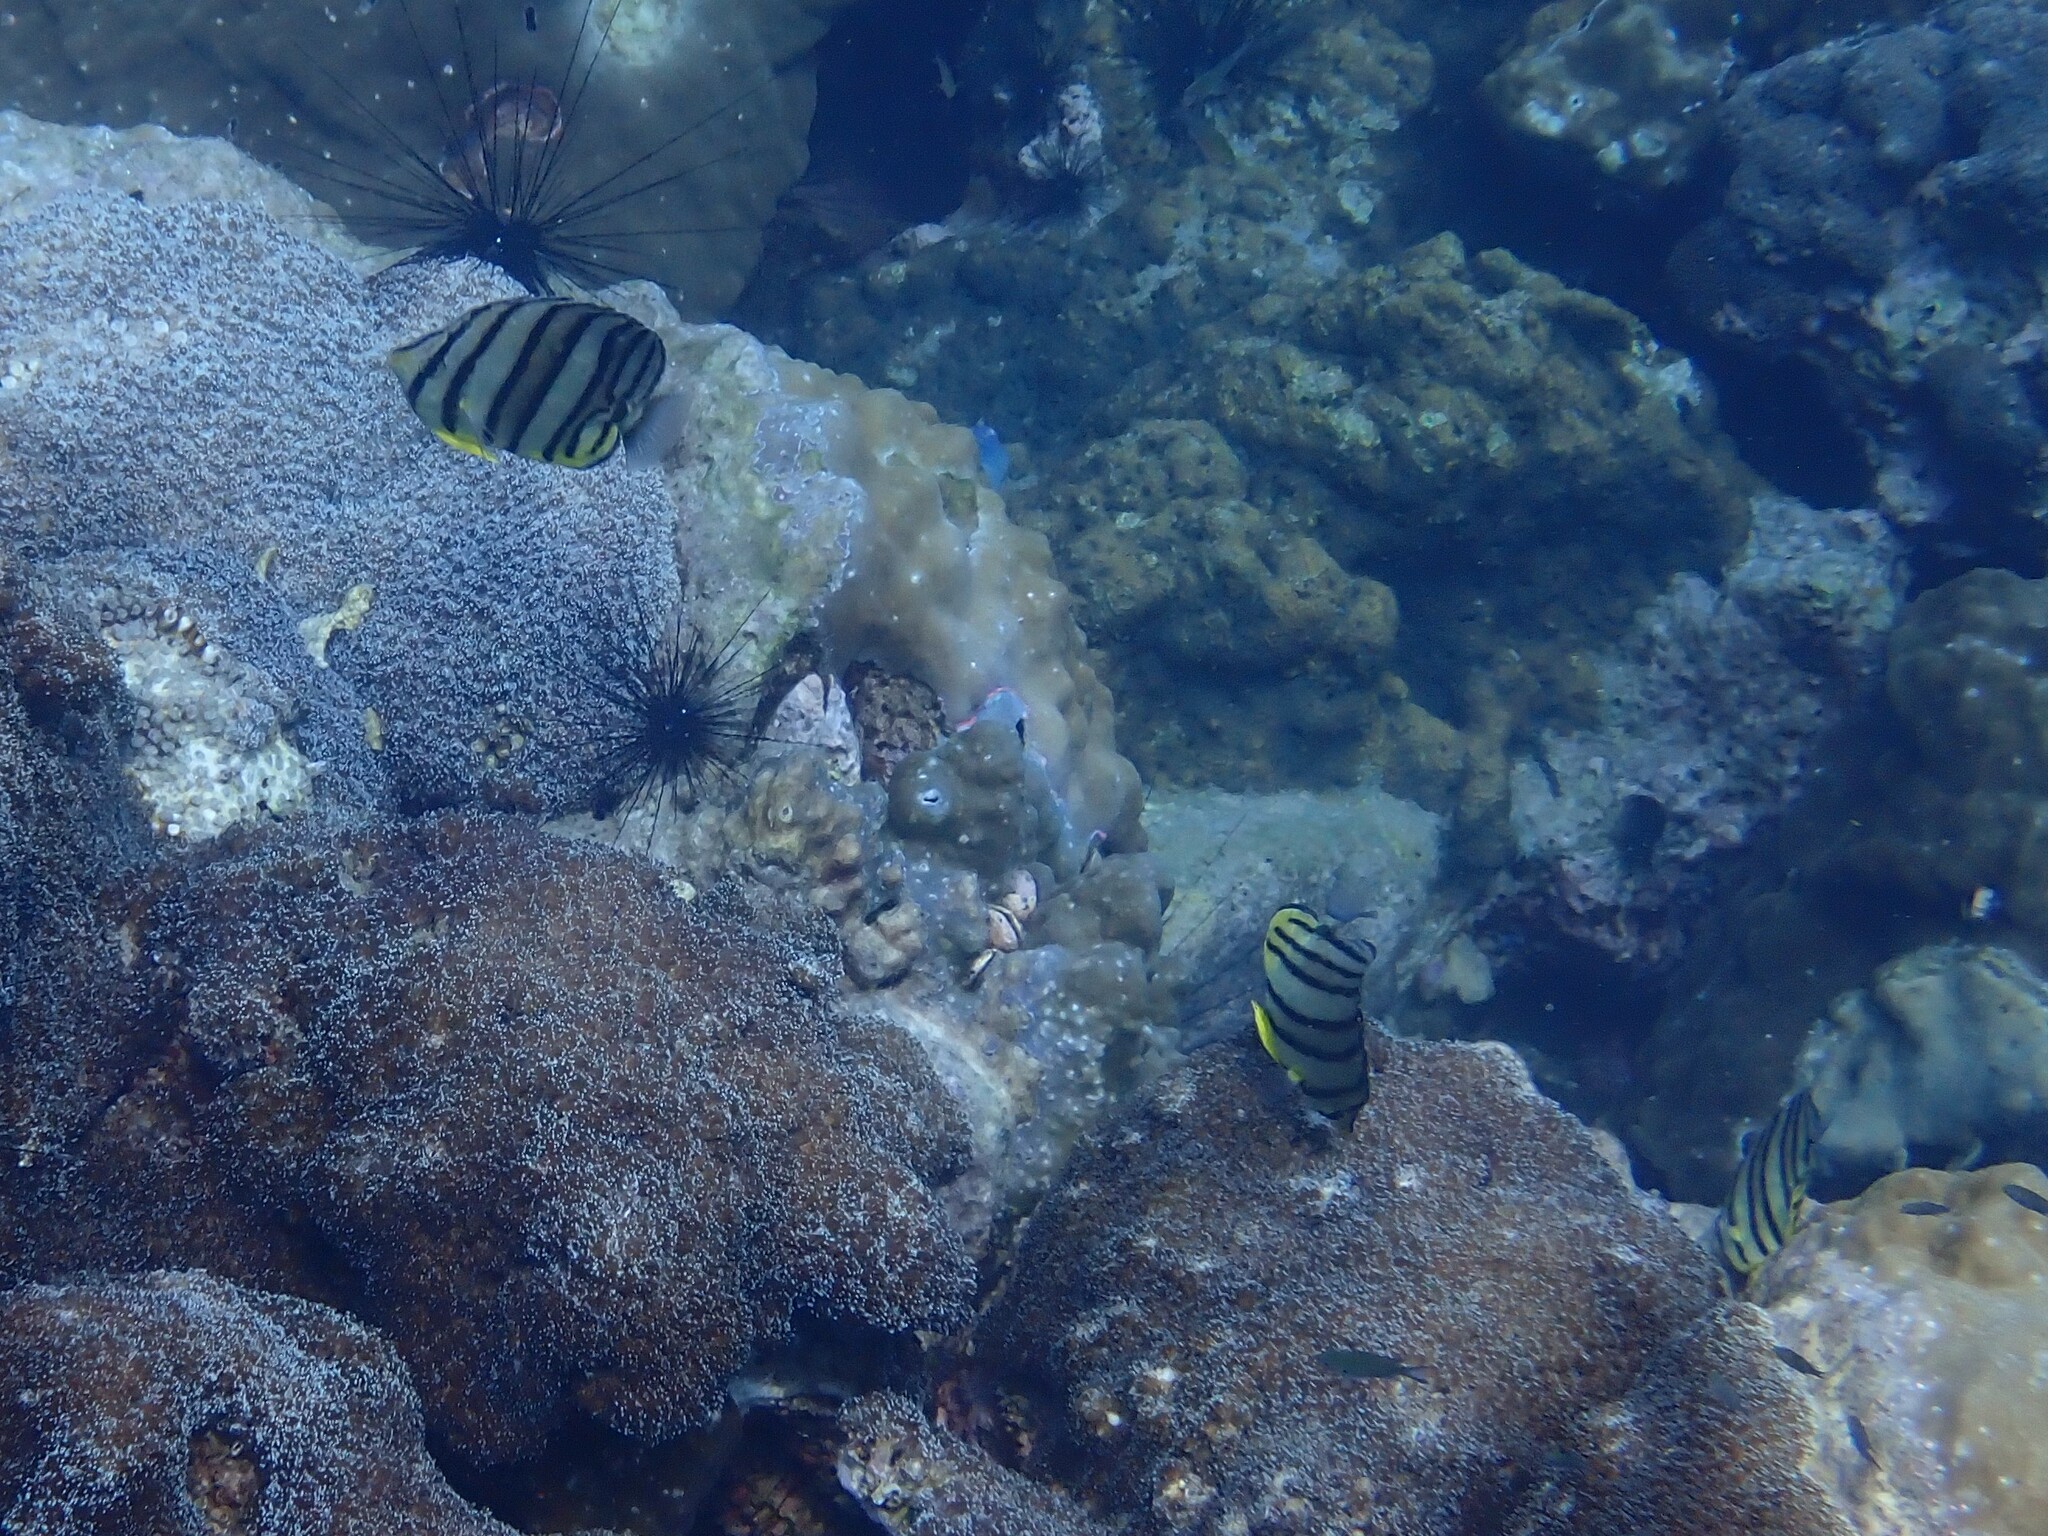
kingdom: Animalia
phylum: Chordata
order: Perciformes
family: Chaetodontidae
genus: Chaetodon
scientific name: Chaetodon octofasciatus
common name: Eightband butterflyfish
